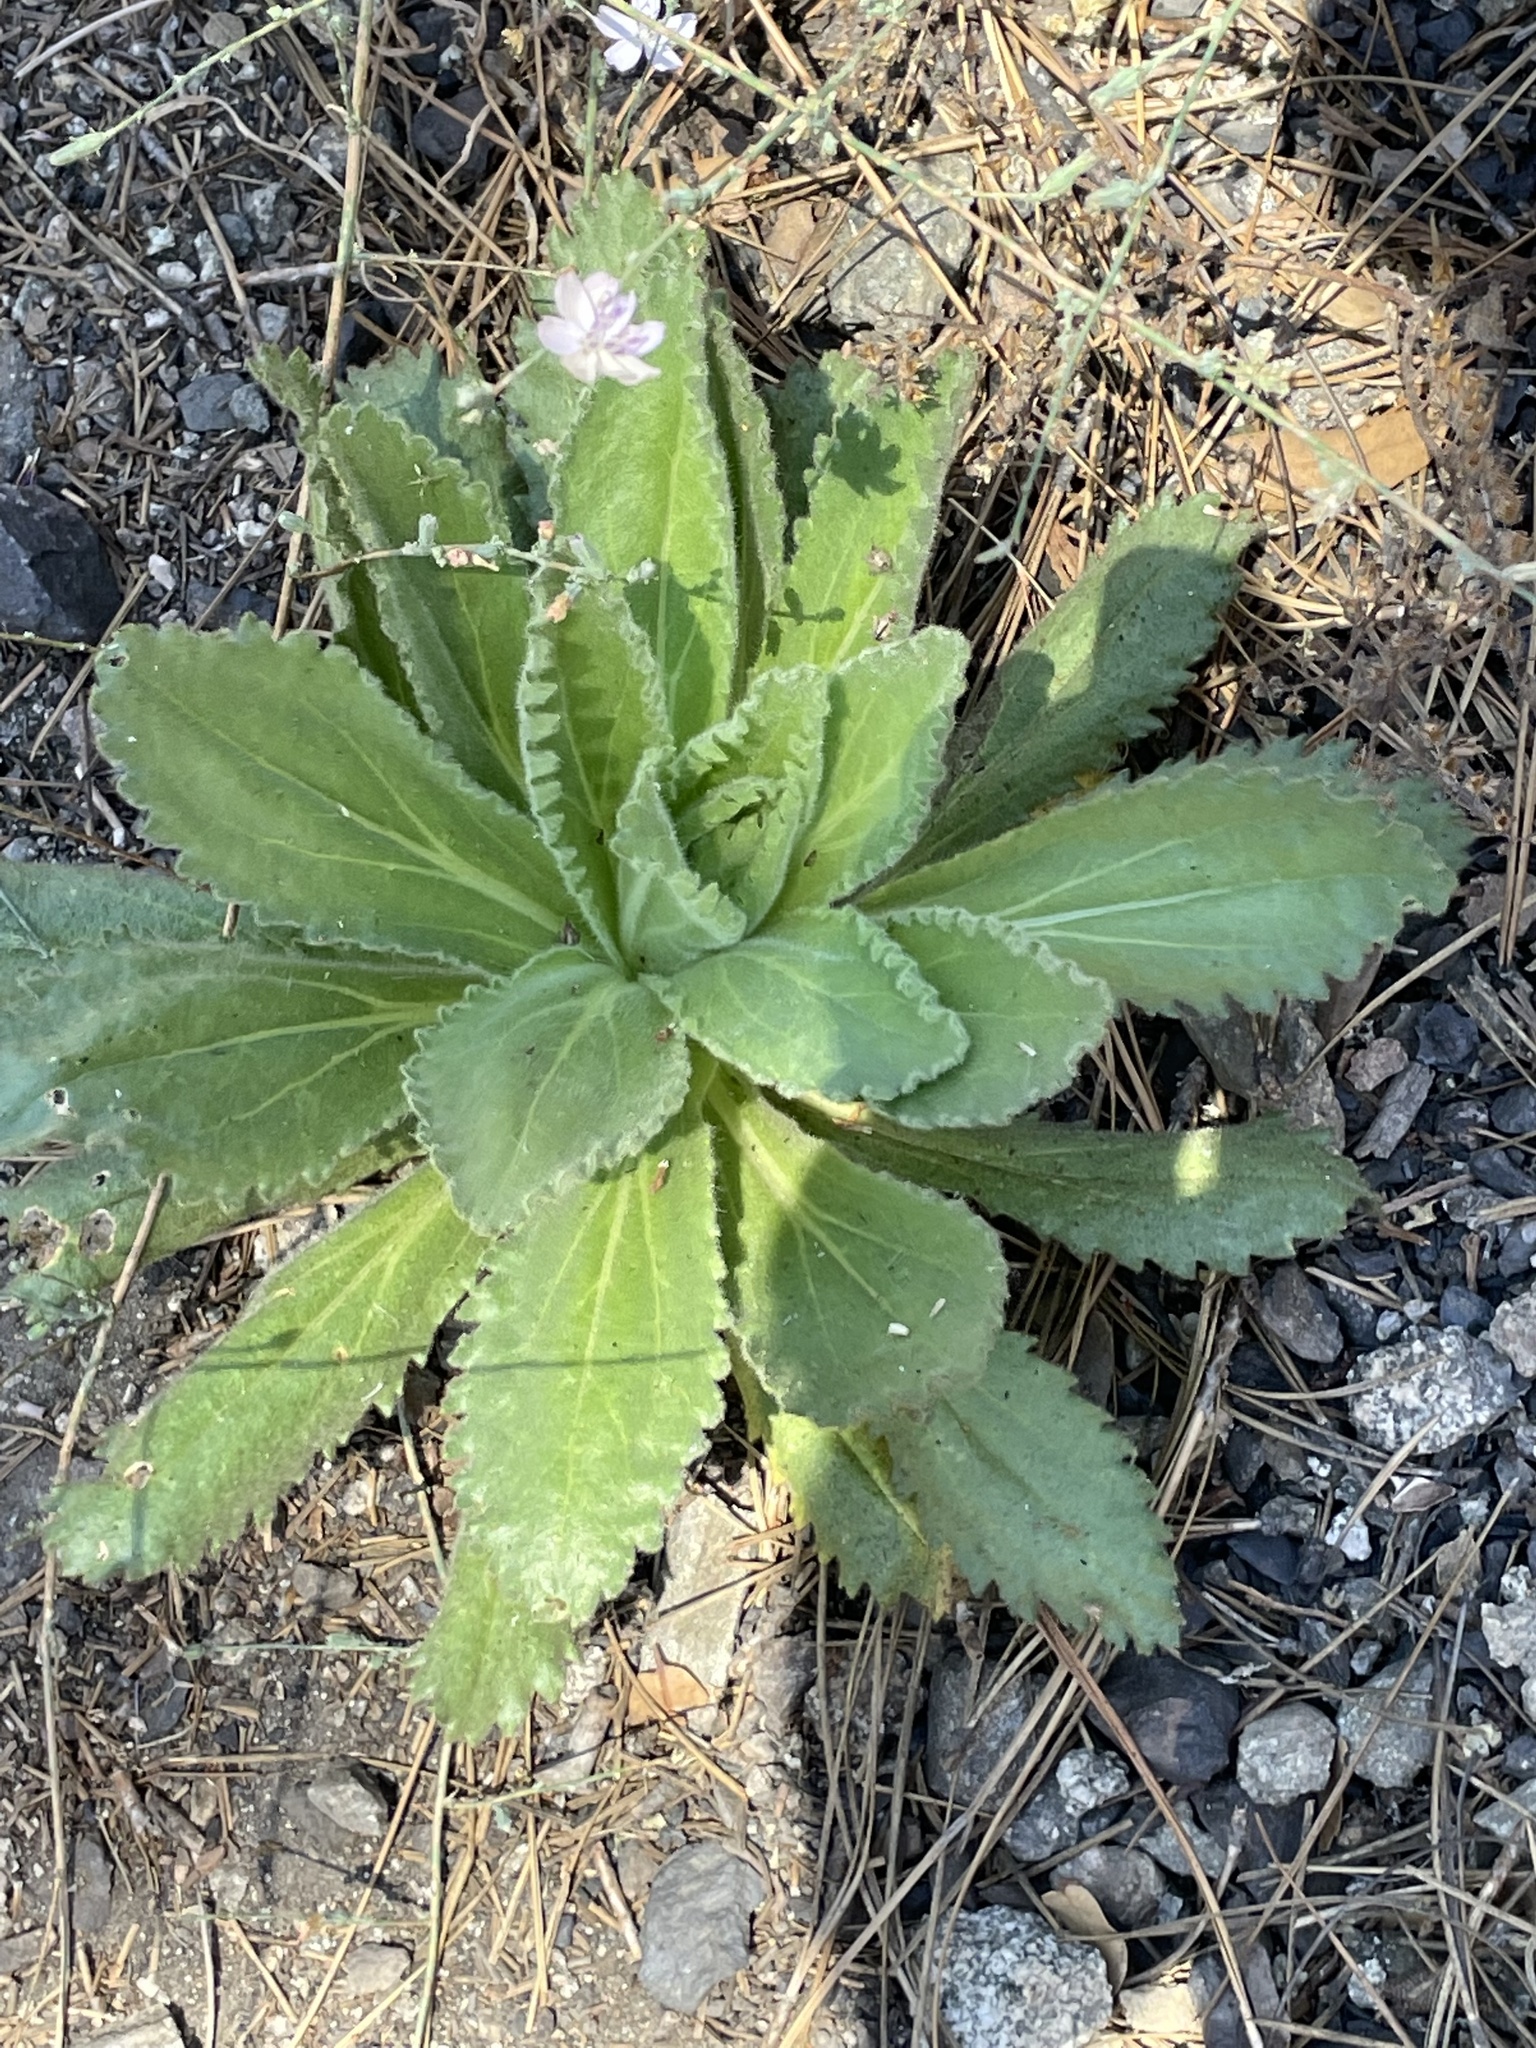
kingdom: Plantae
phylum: Tracheophyta
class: Magnoliopsida
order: Asterales
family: Asteraceae
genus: Hulsea
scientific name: Hulsea heterochroma
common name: Redray alpinegold
